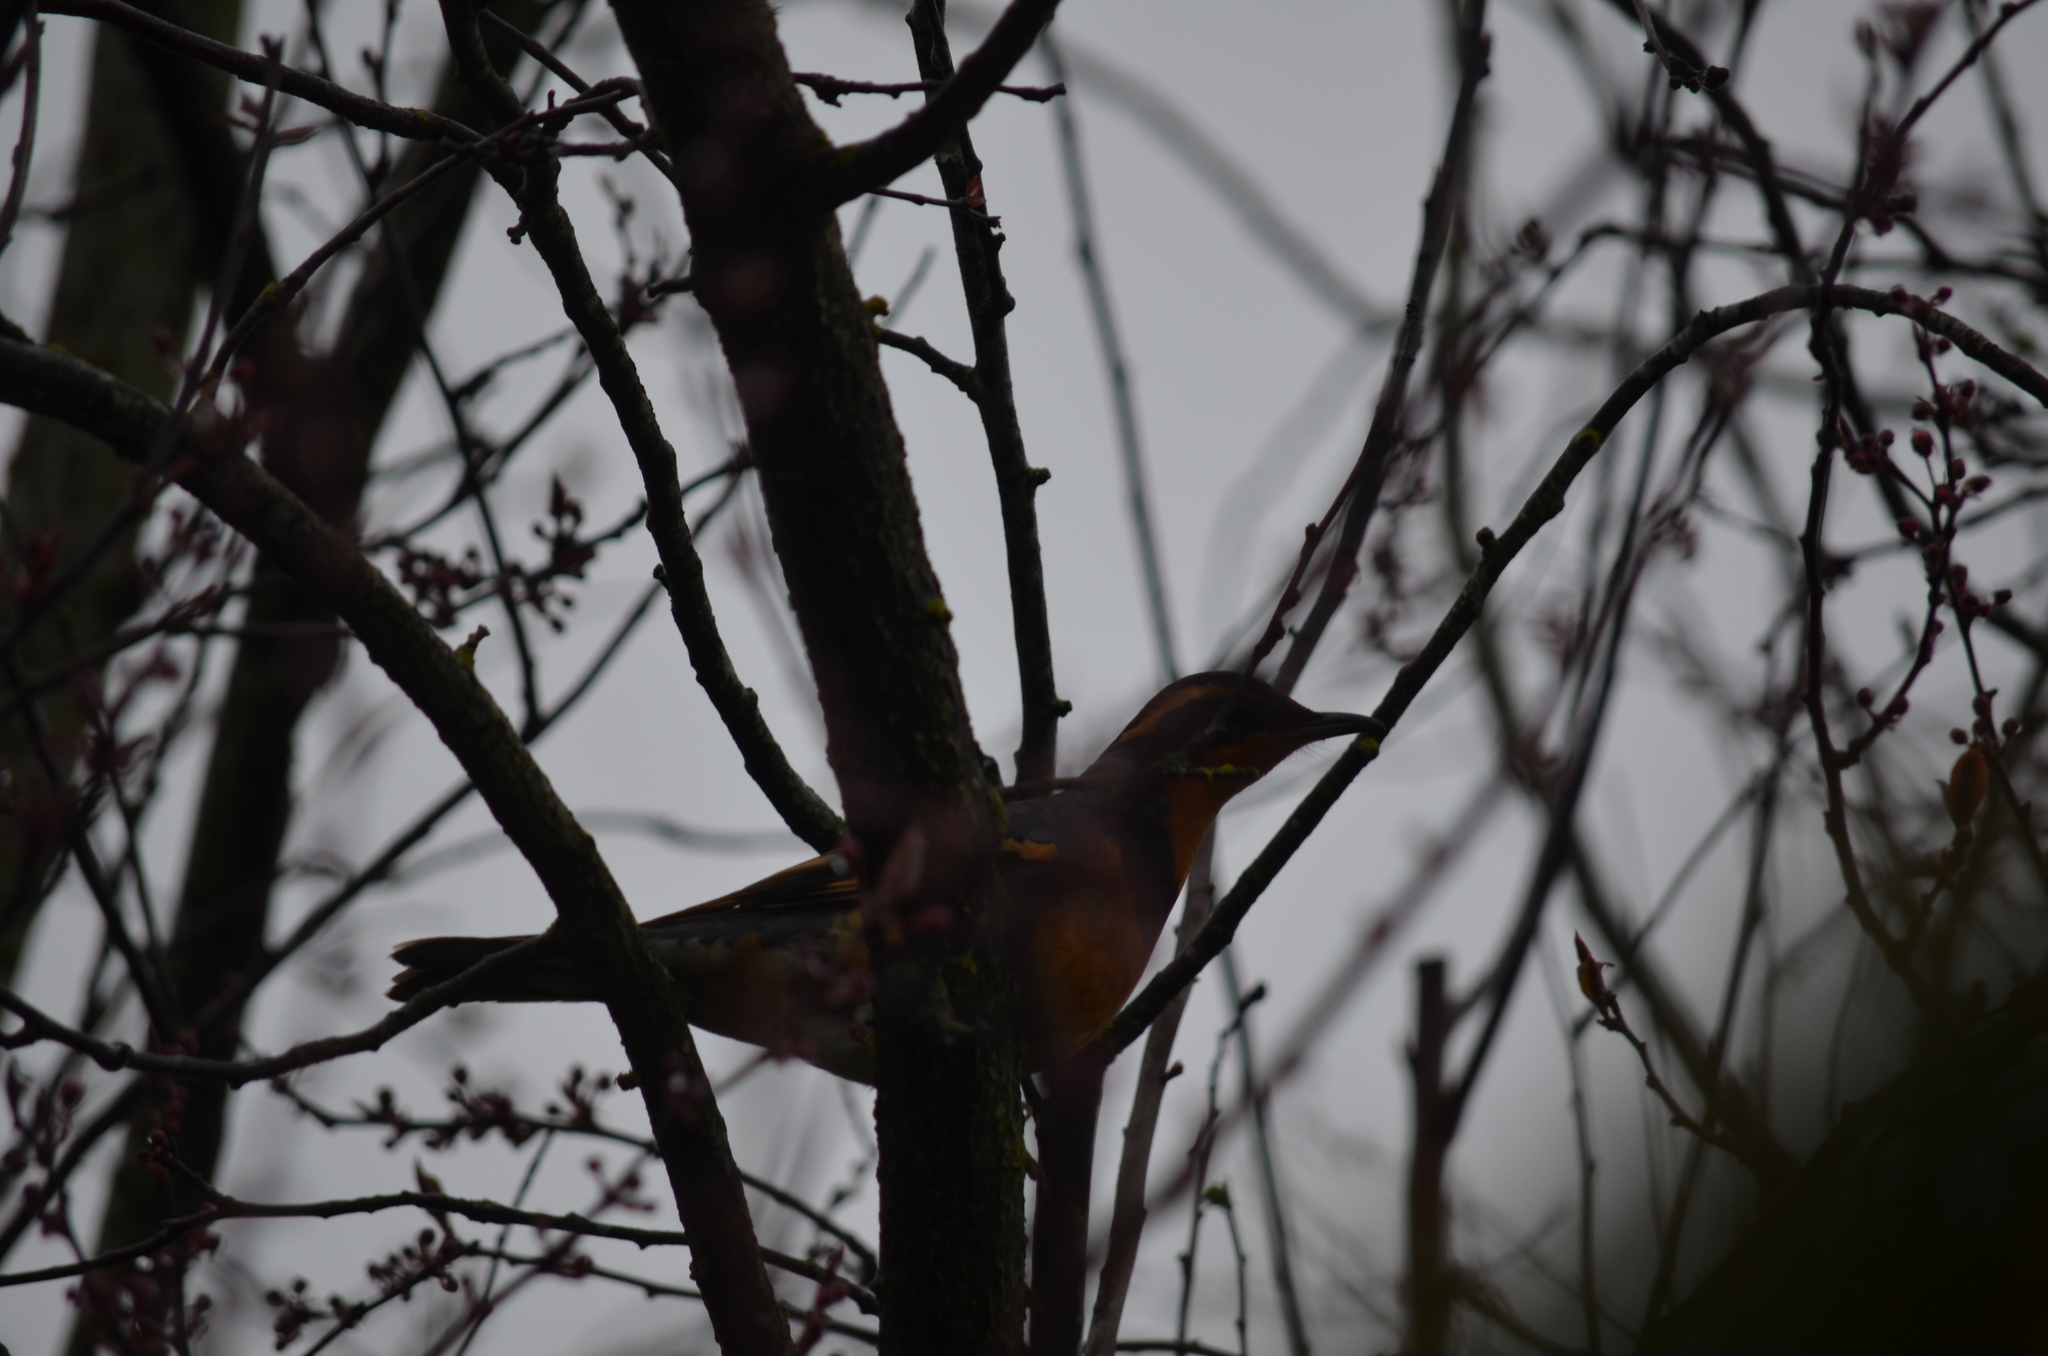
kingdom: Animalia
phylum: Chordata
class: Aves
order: Passeriformes
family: Turdidae
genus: Ixoreus
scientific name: Ixoreus naevius
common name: Varied thrush
